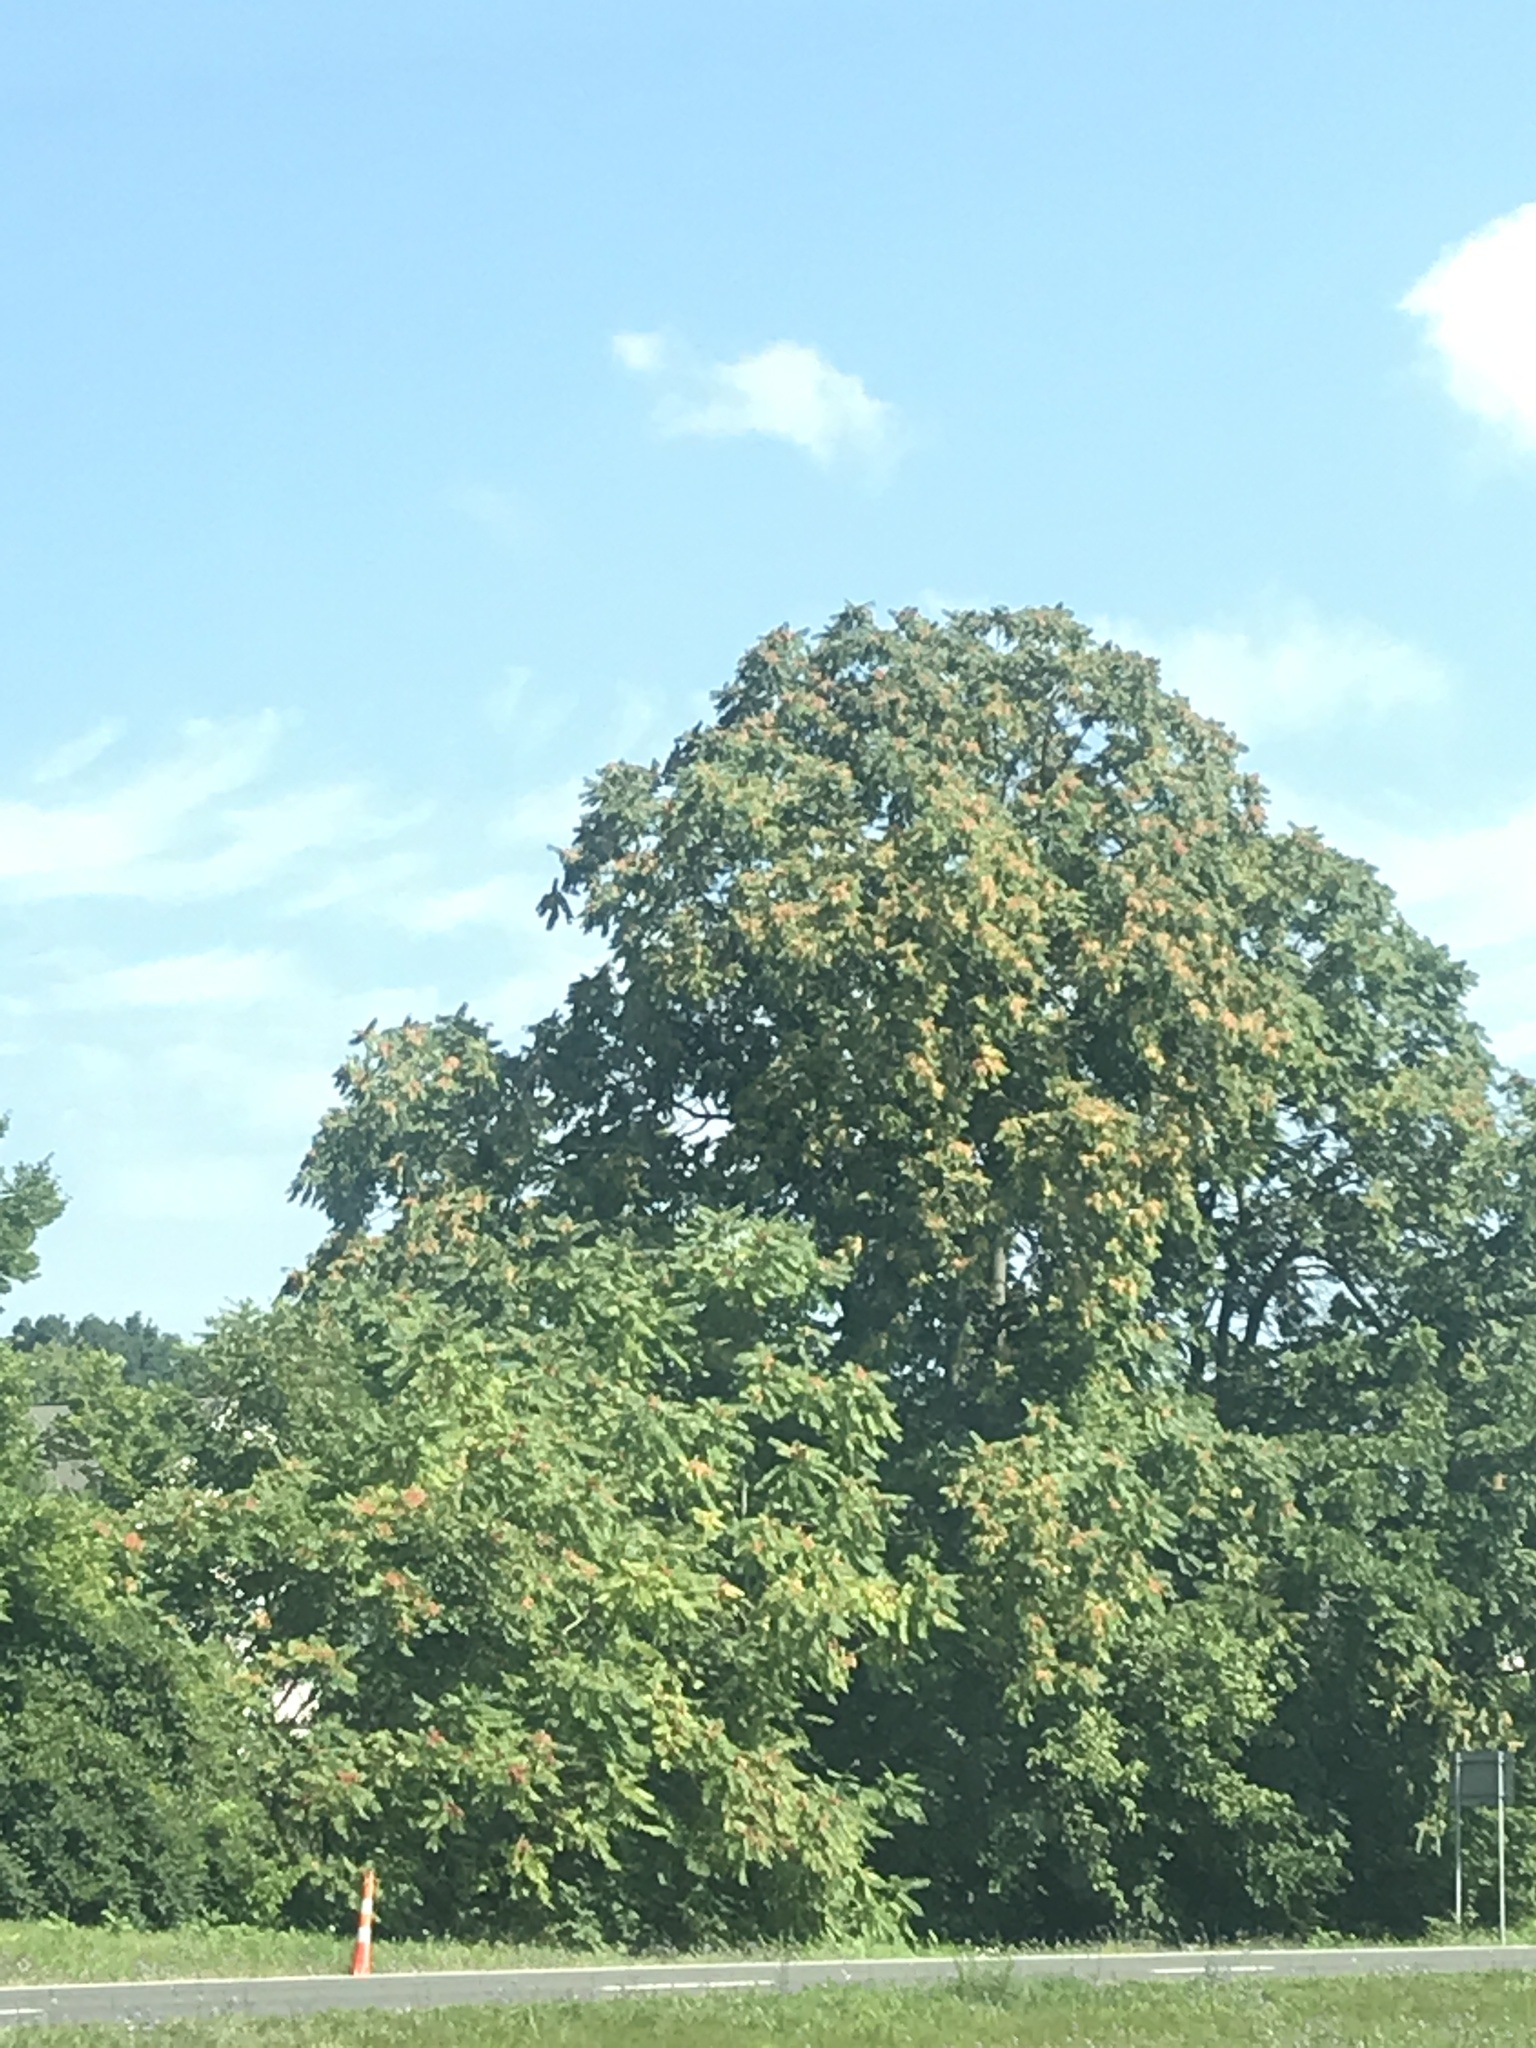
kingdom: Plantae
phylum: Tracheophyta
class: Magnoliopsida
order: Sapindales
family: Simaroubaceae
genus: Ailanthus
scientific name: Ailanthus altissima
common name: Tree-of-heaven
